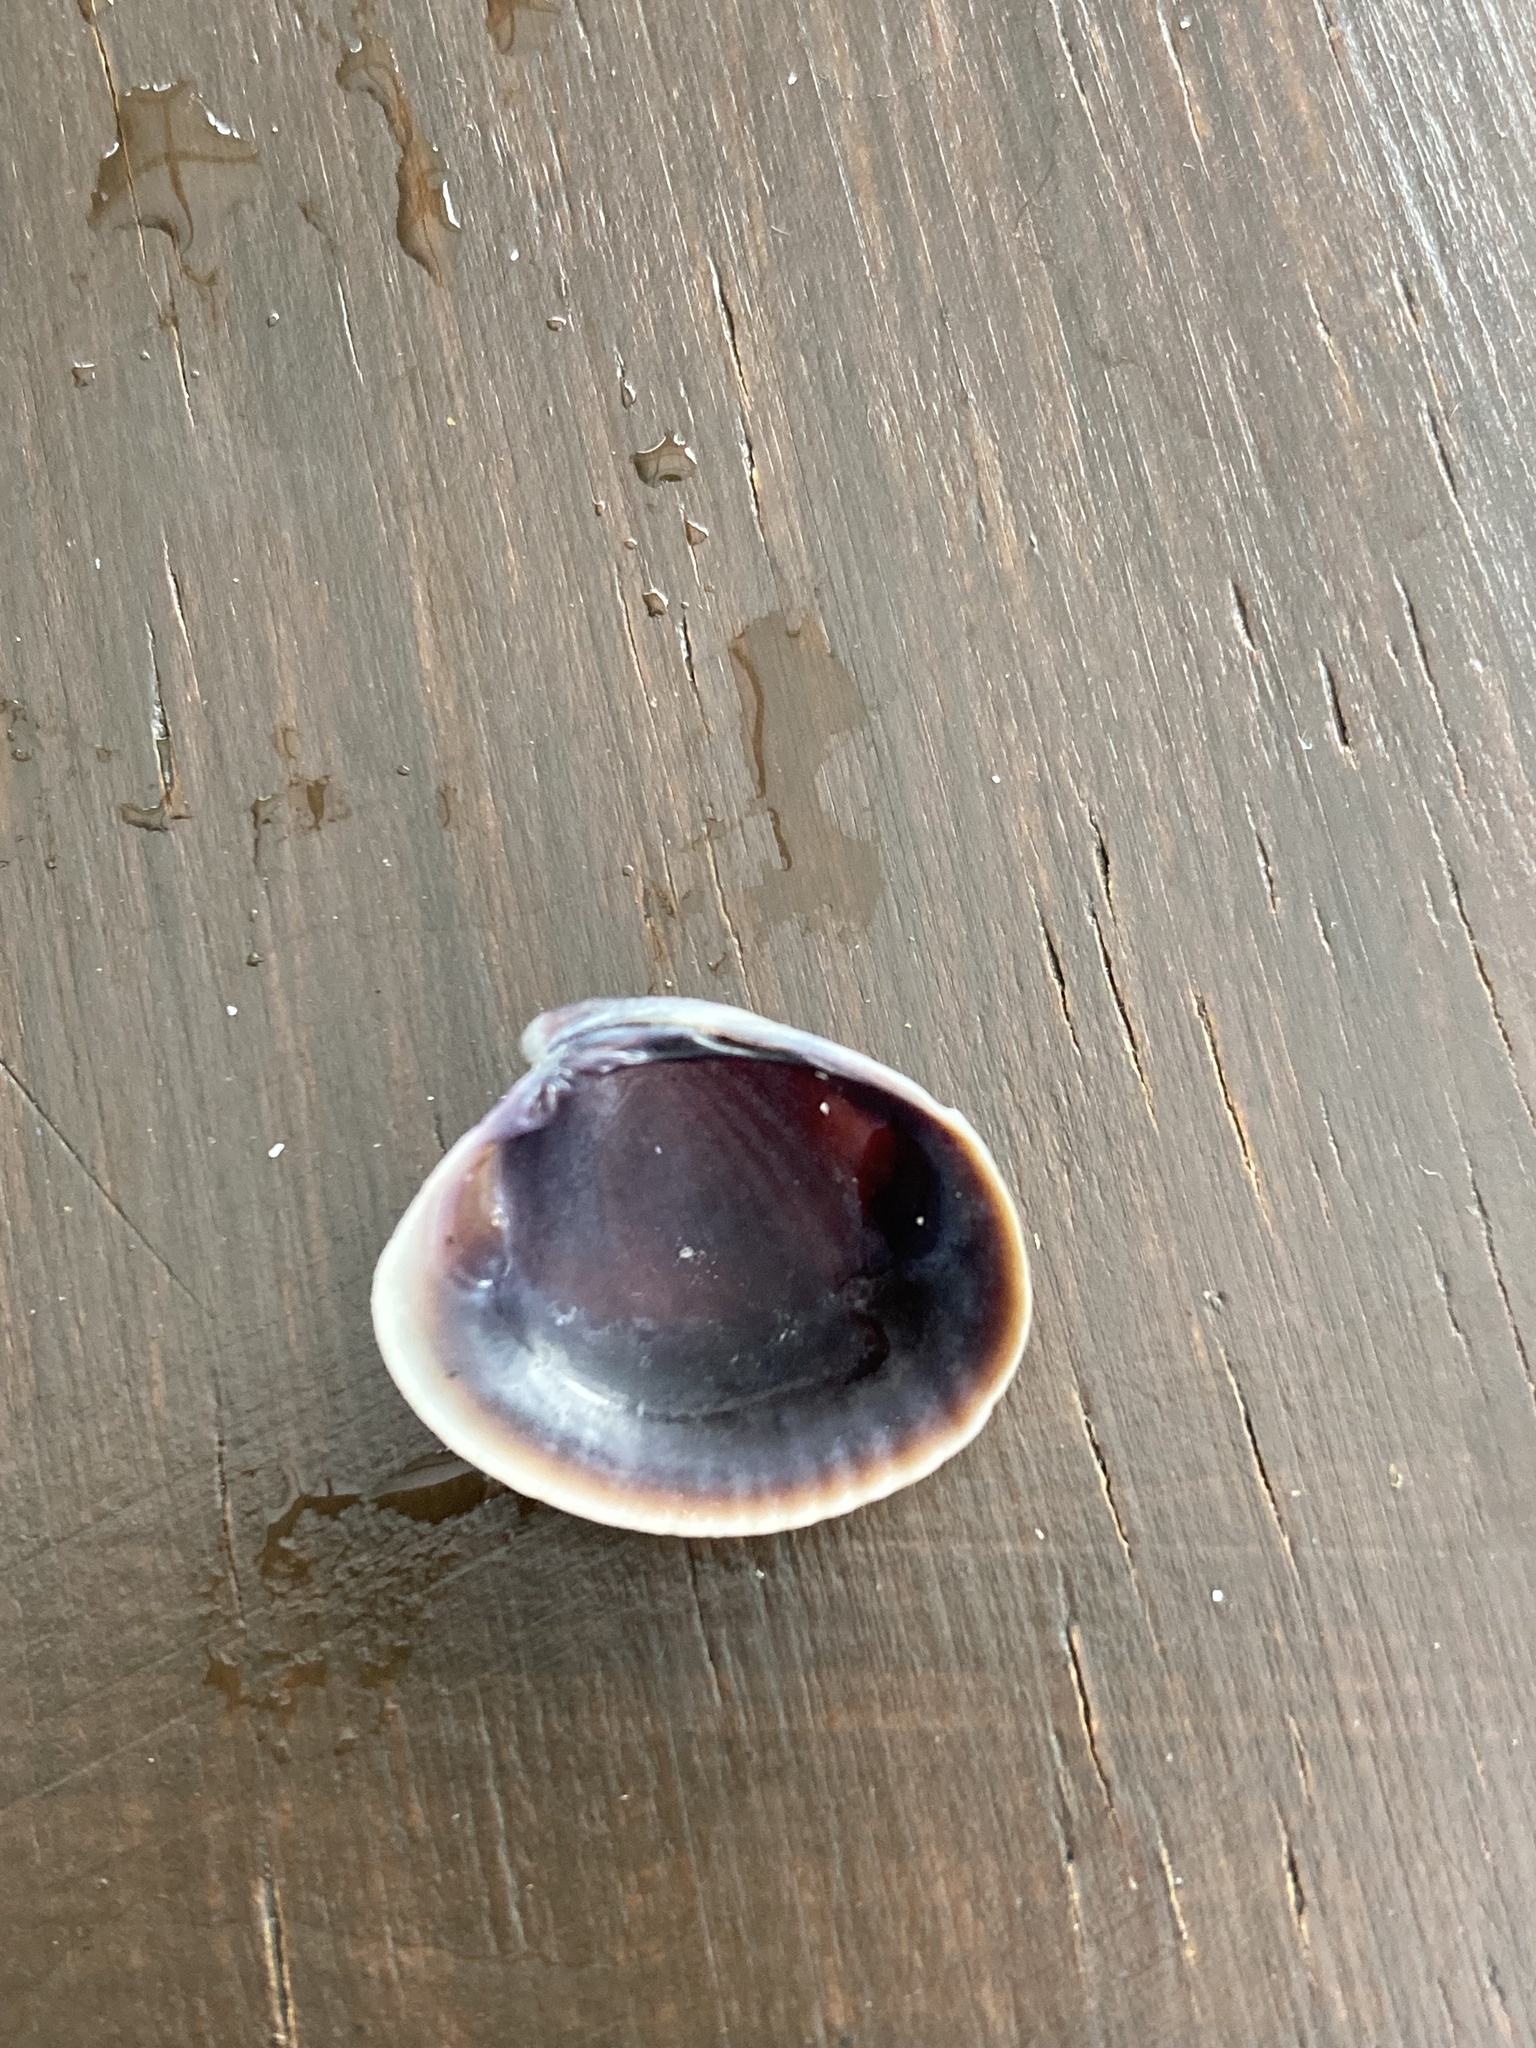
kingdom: Animalia
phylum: Mollusca
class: Bivalvia
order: Venerida
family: Veneridae
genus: Austrovenus
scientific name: Austrovenus stutchburyi
